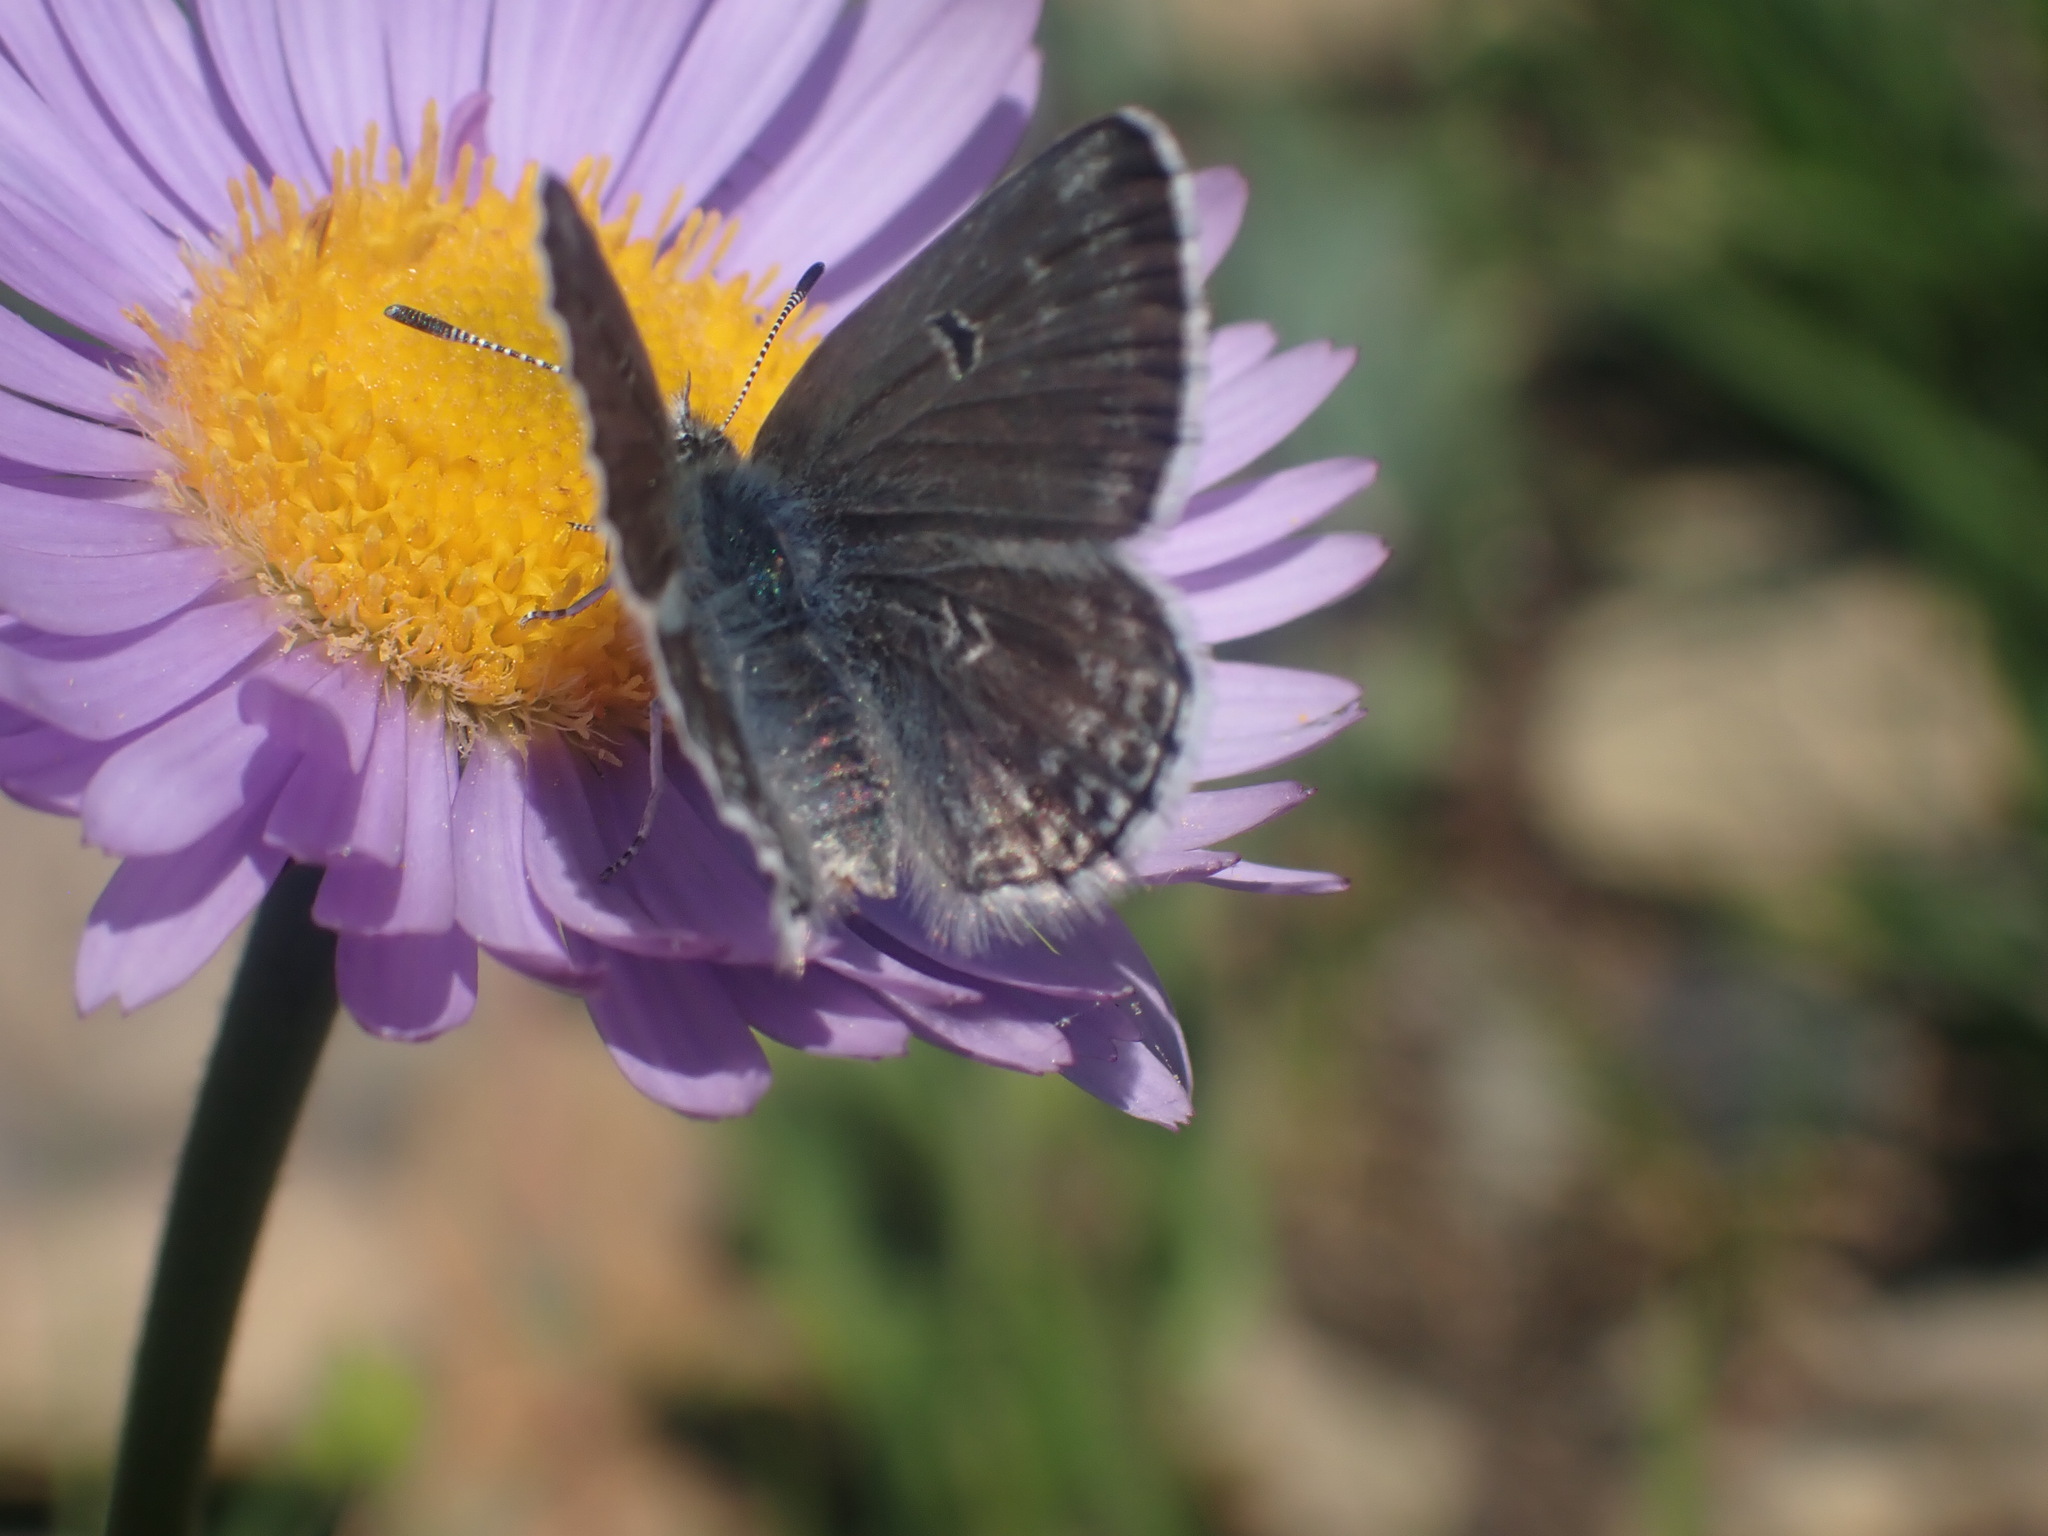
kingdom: Animalia
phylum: Arthropoda
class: Insecta
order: Lepidoptera
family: Lycaenidae
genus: Agriades
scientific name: Agriades glandon
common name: Glandon blue
